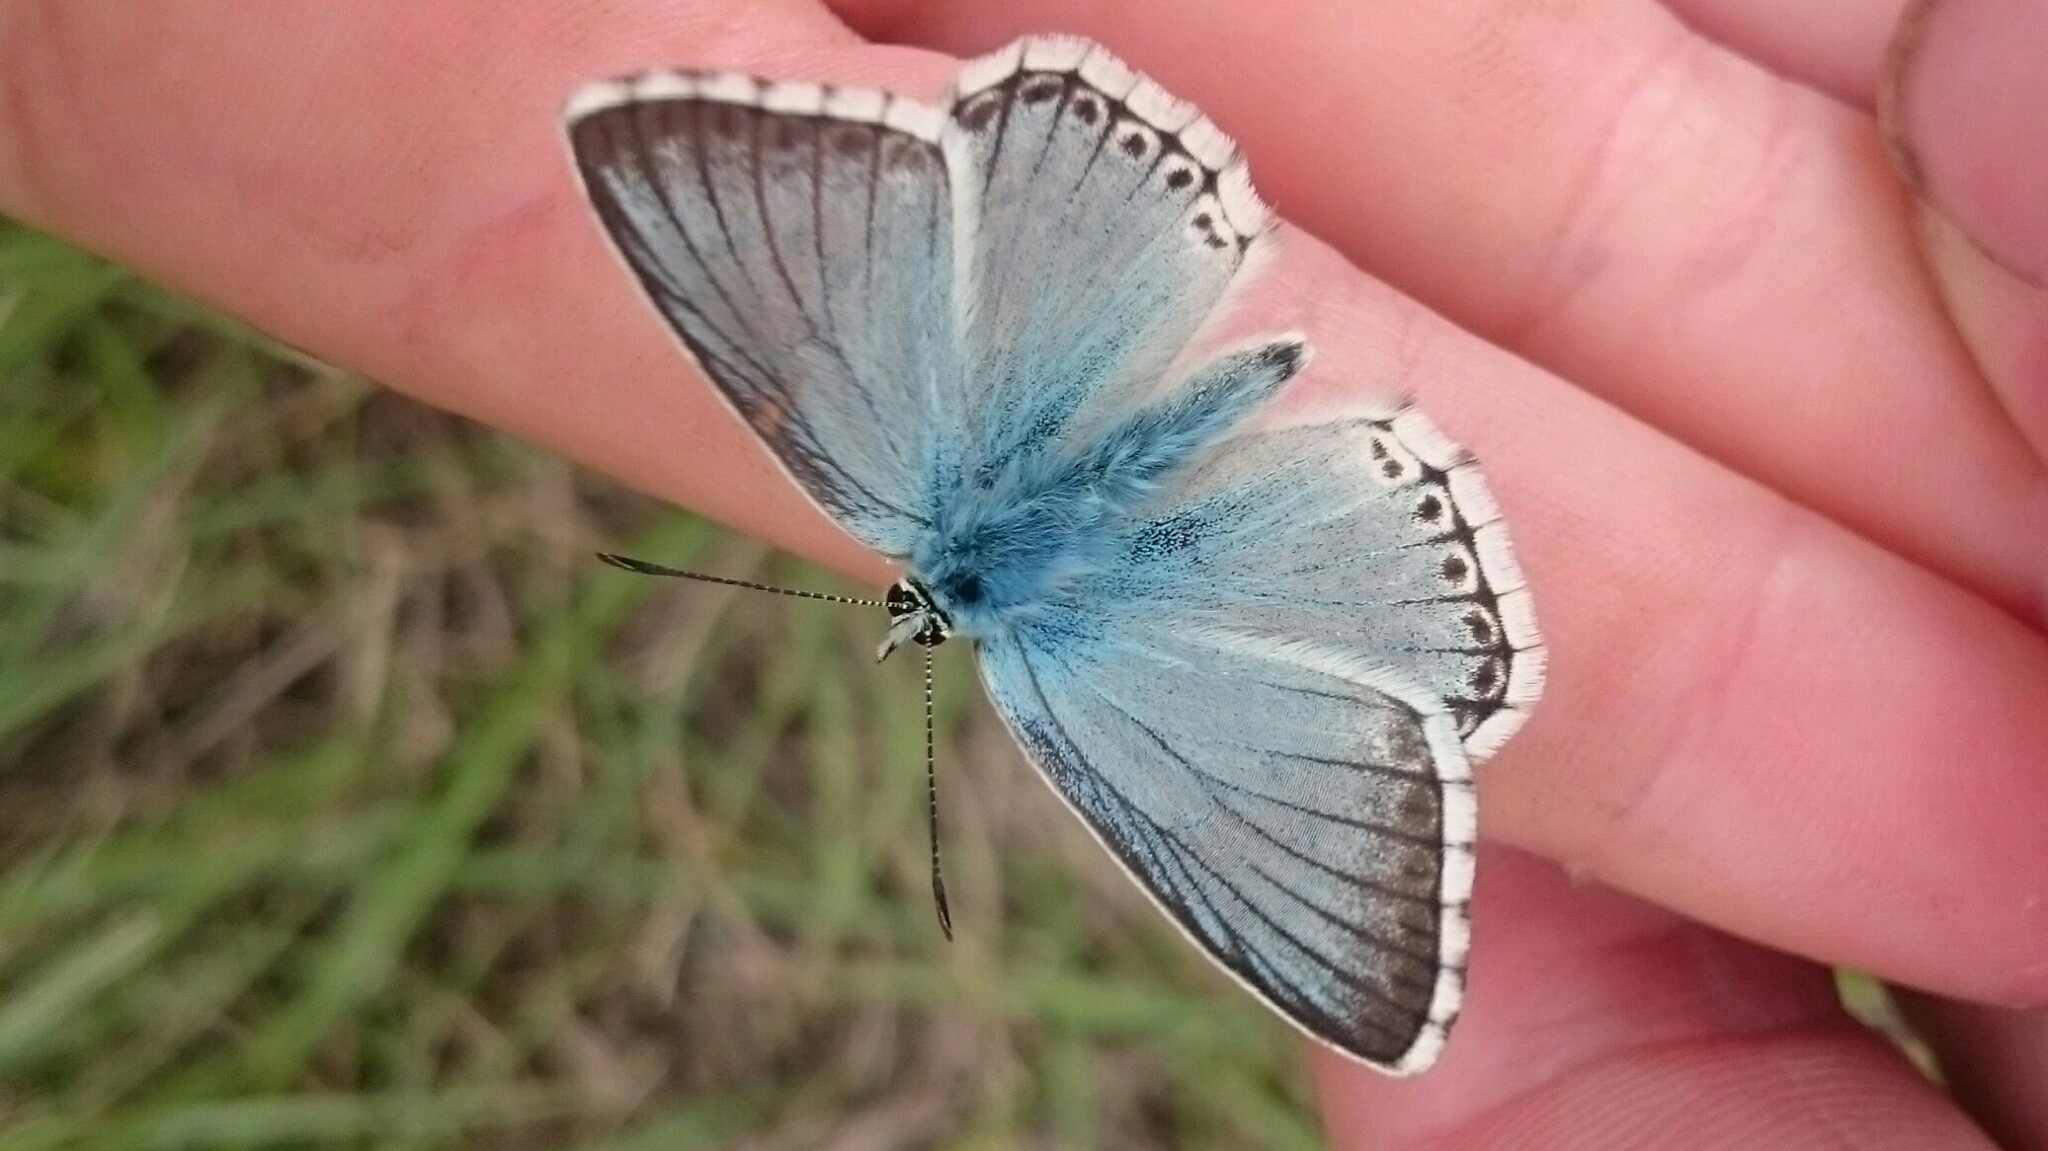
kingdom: Animalia
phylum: Arthropoda
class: Insecta
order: Lepidoptera
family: Lycaenidae
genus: Lysandra
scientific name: Lysandra coridon
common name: Chalkhill blue
